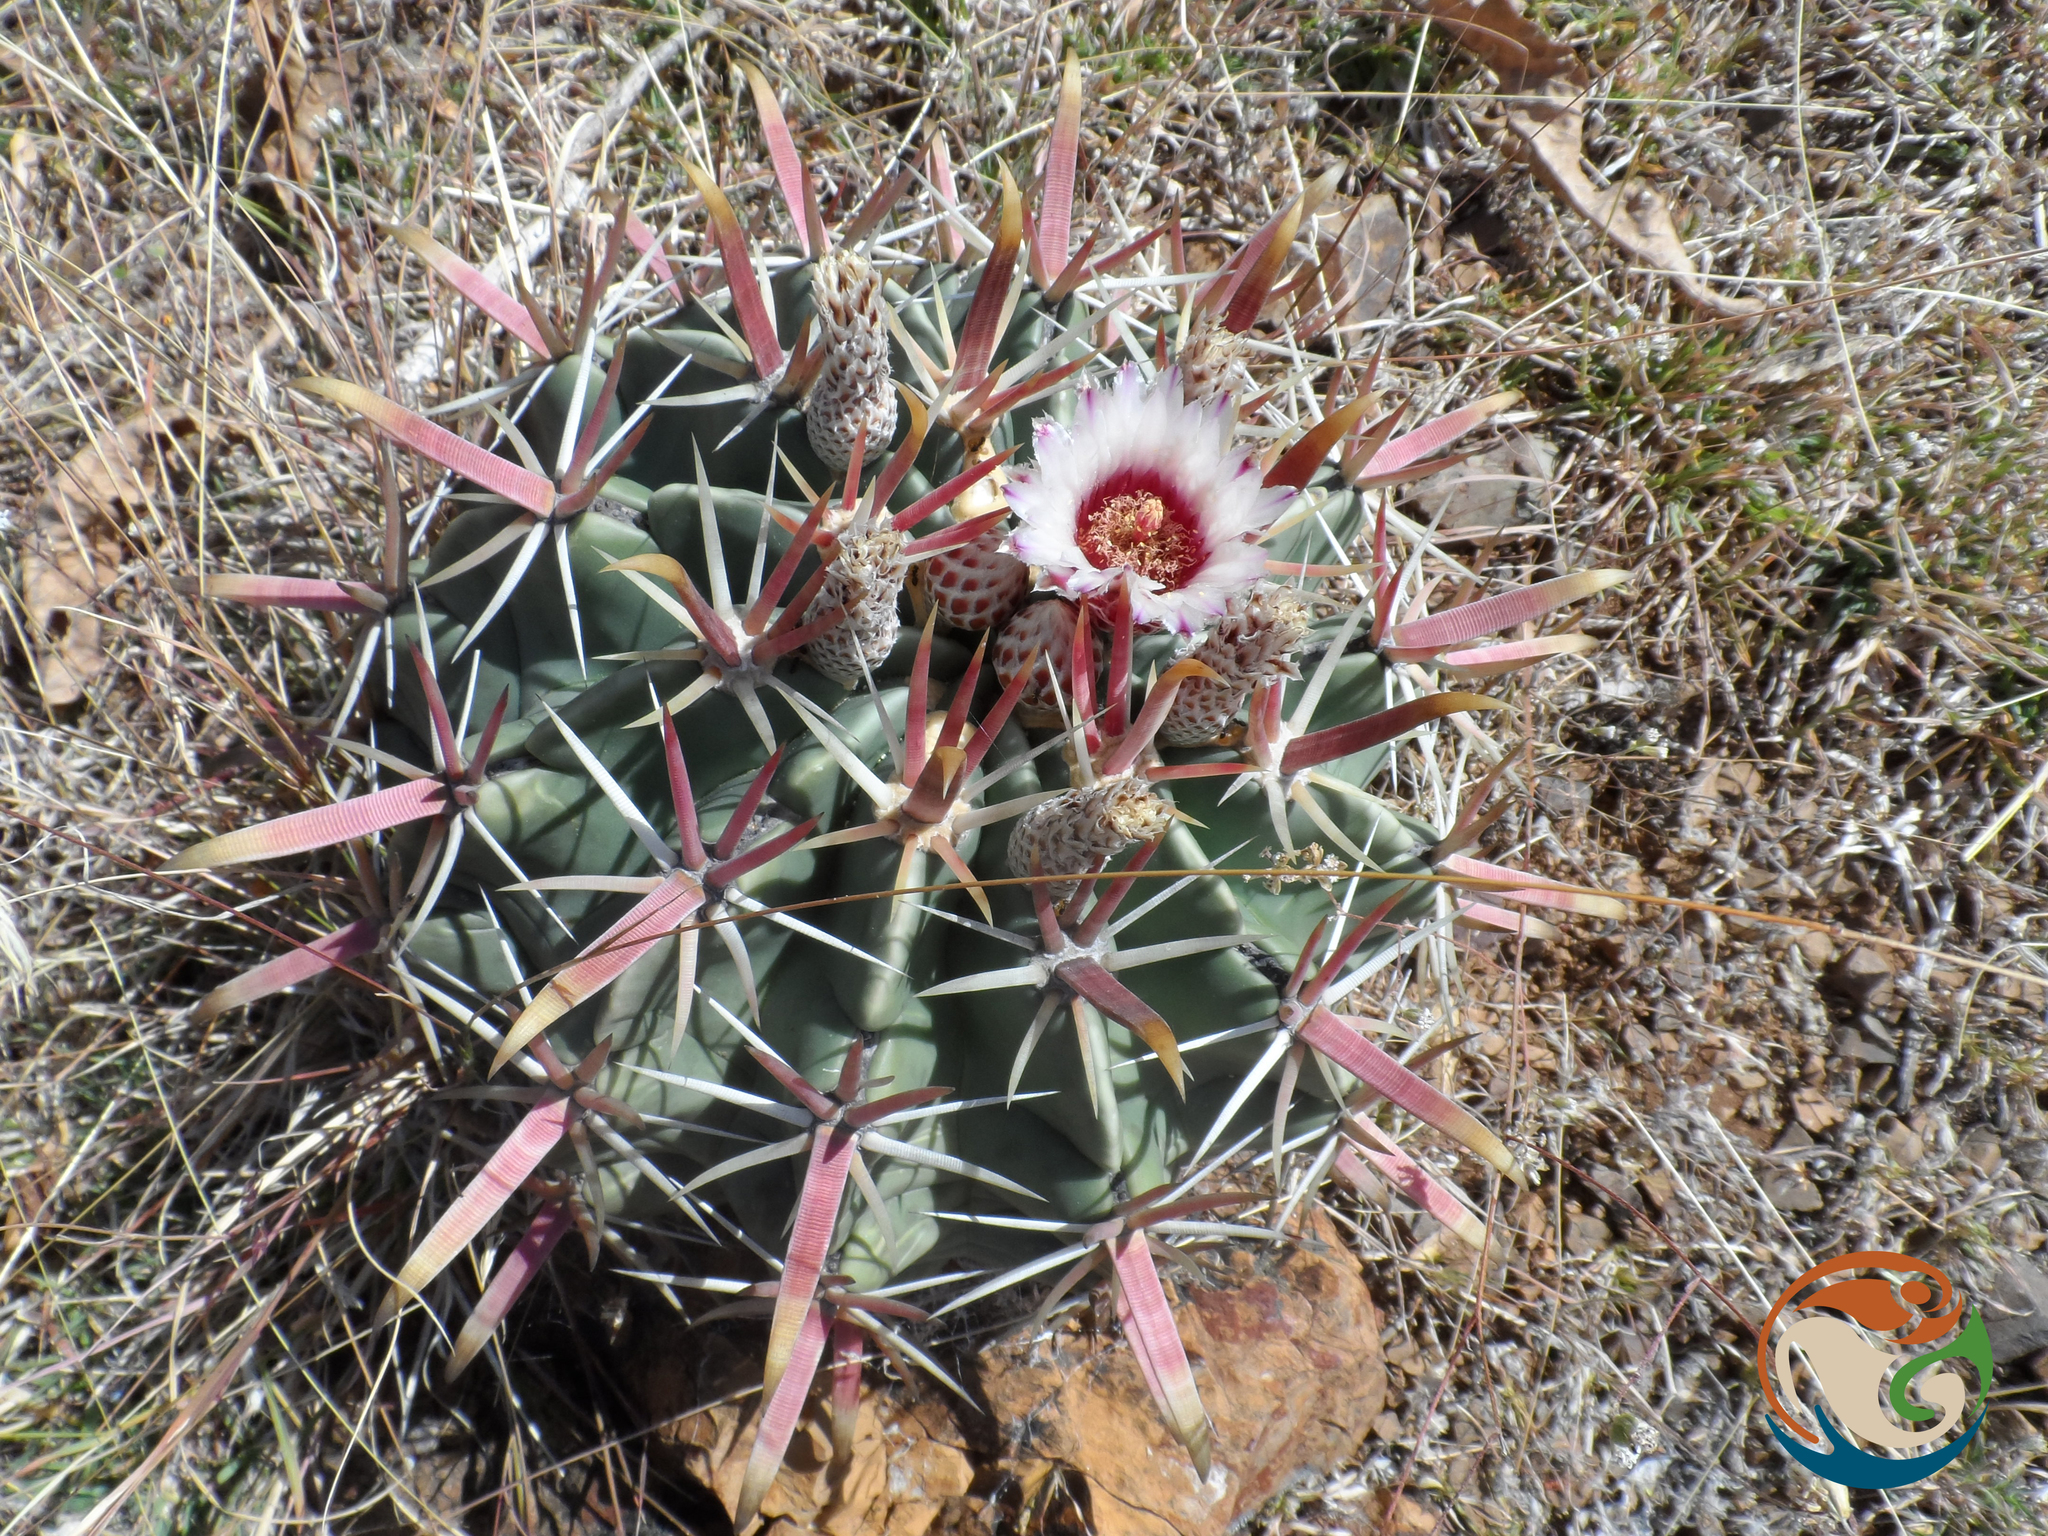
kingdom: Plantae
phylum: Tracheophyta
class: Magnoliopsida
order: Caryophyllales
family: Cactaceae
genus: Ferocactus
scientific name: Ferocactus latispinus
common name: Devil's-tongue cactus
